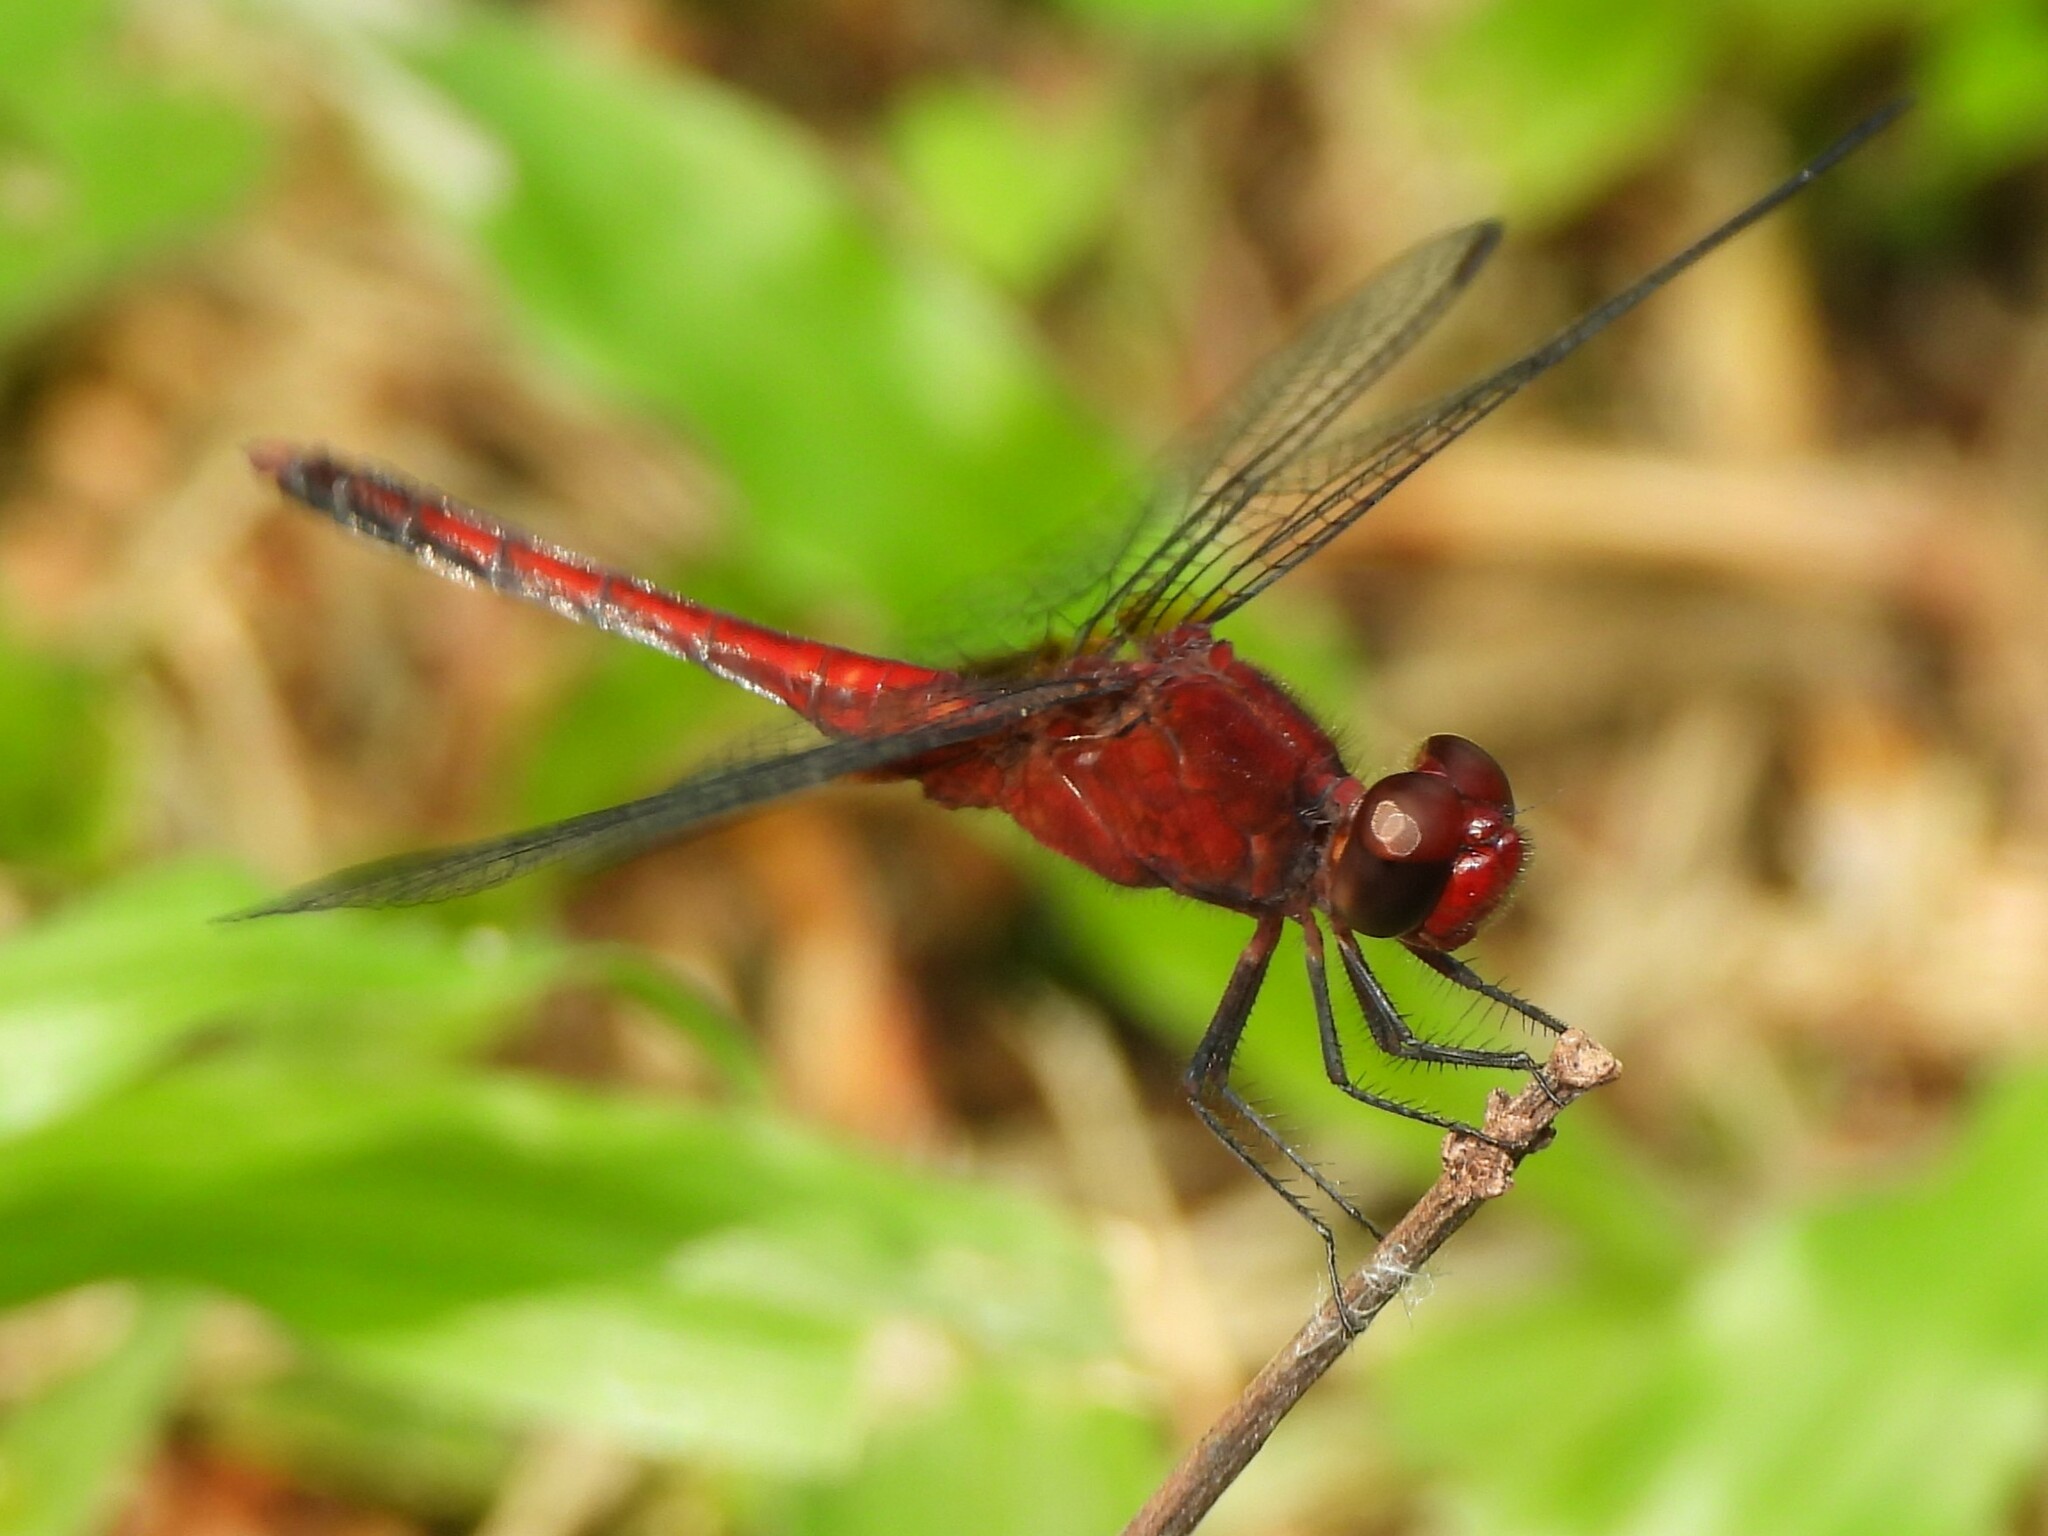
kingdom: Animalia
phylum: Arthropoda
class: Insecta
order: Odonata
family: Libellulidae
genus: Erythrodiplax
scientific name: Erythrodiplax fusca
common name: Red-faced dragonlet
